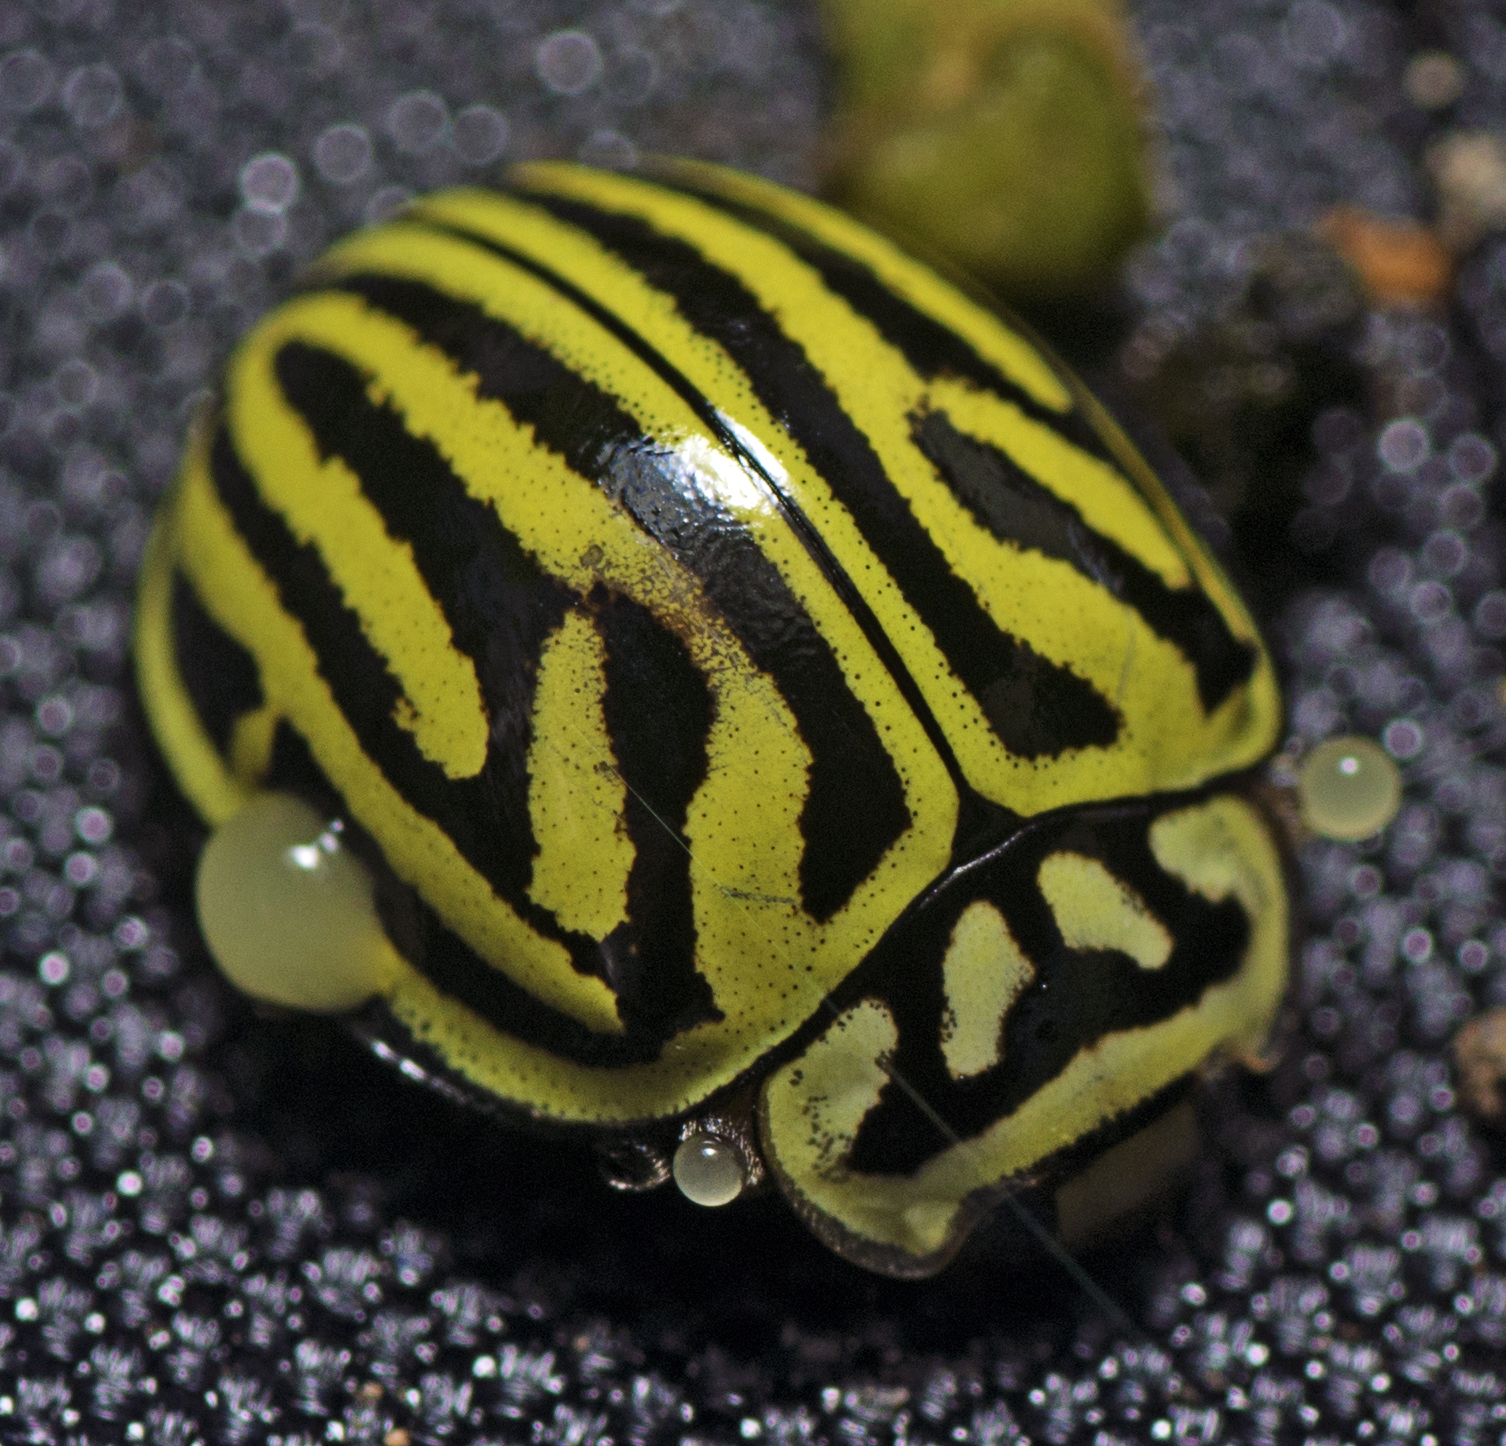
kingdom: Animalia
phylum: Arthropoda
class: Insecta
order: Coleoptera
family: Coccinellidae
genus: Archegleis
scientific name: Archegleis
